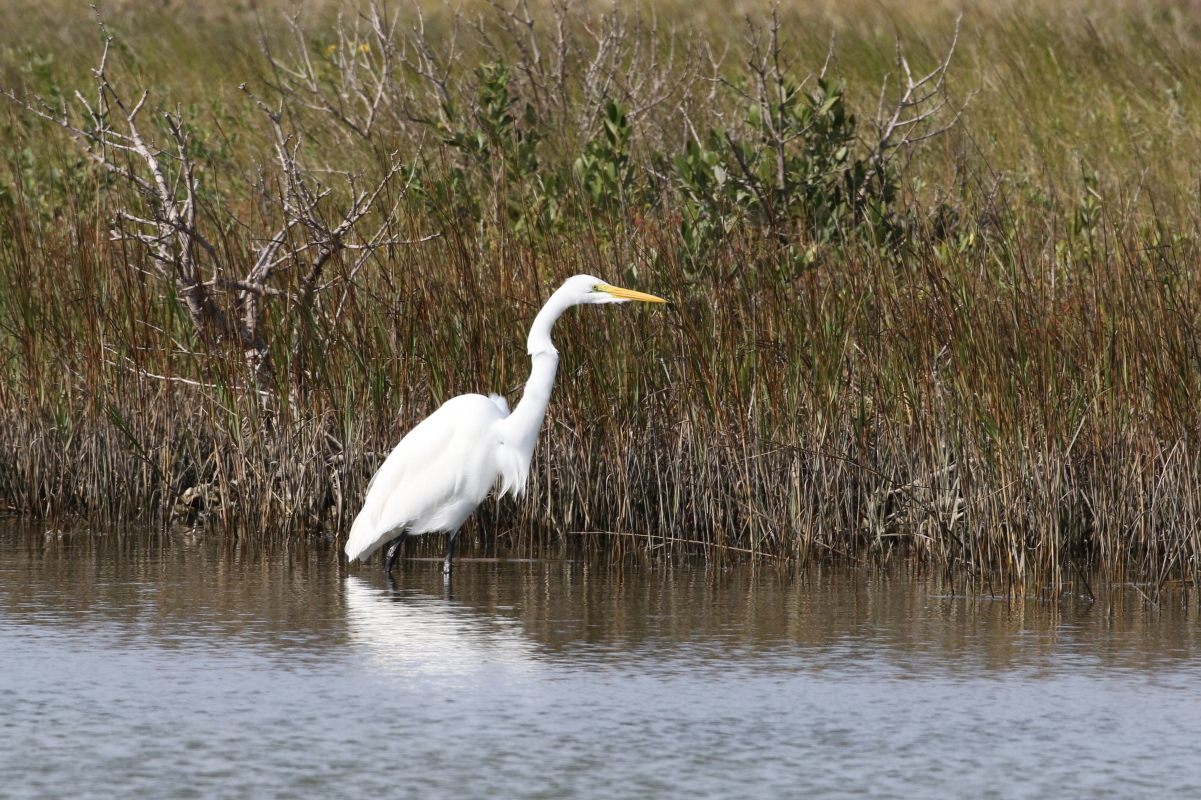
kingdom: Animalia
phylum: Chordata
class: Aves
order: Pelecaniformes
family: Ardeidae
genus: Ardea
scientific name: Ardea alba
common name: Great egret
